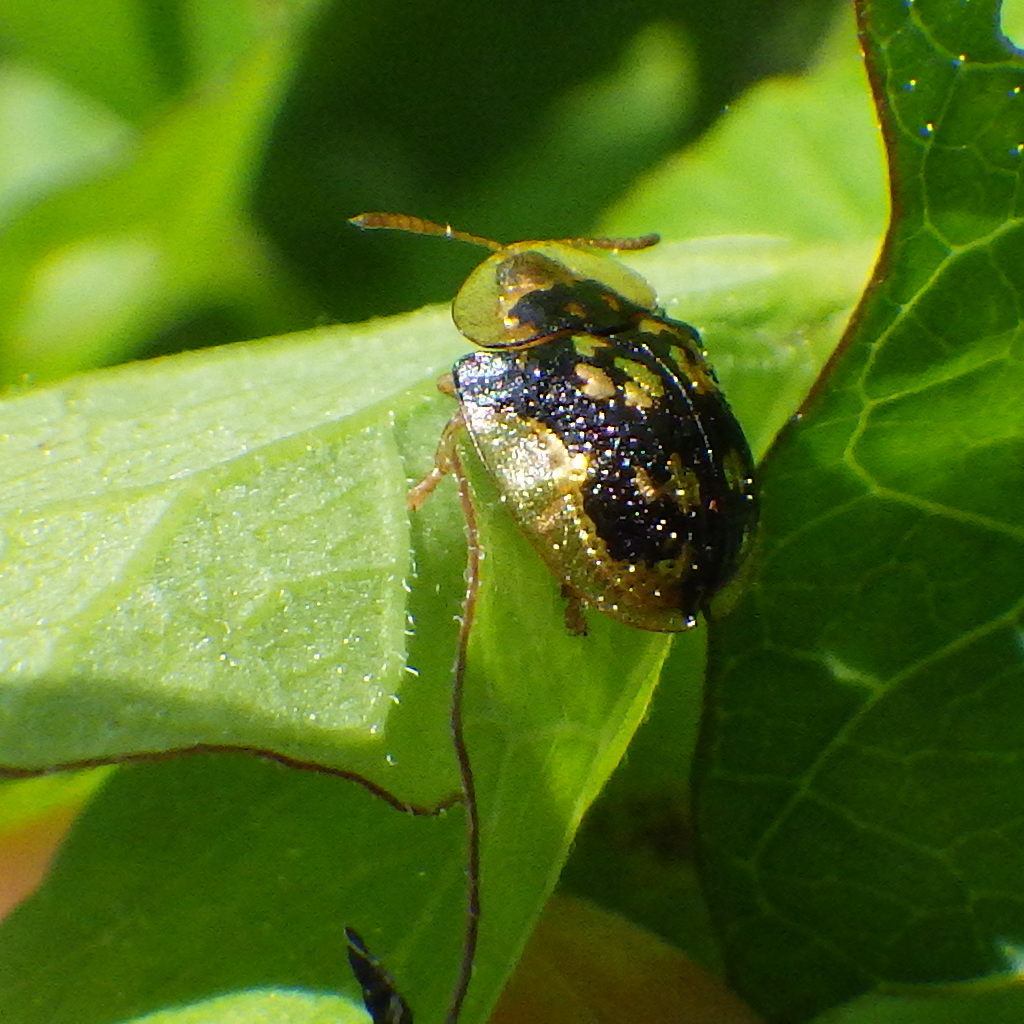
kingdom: Animalia
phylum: Arthropoda
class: Insecta
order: Coleoptera
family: Chrysomelidae
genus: Deloyala
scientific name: Deloyala guttata
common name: Mottled tortoise beetle
